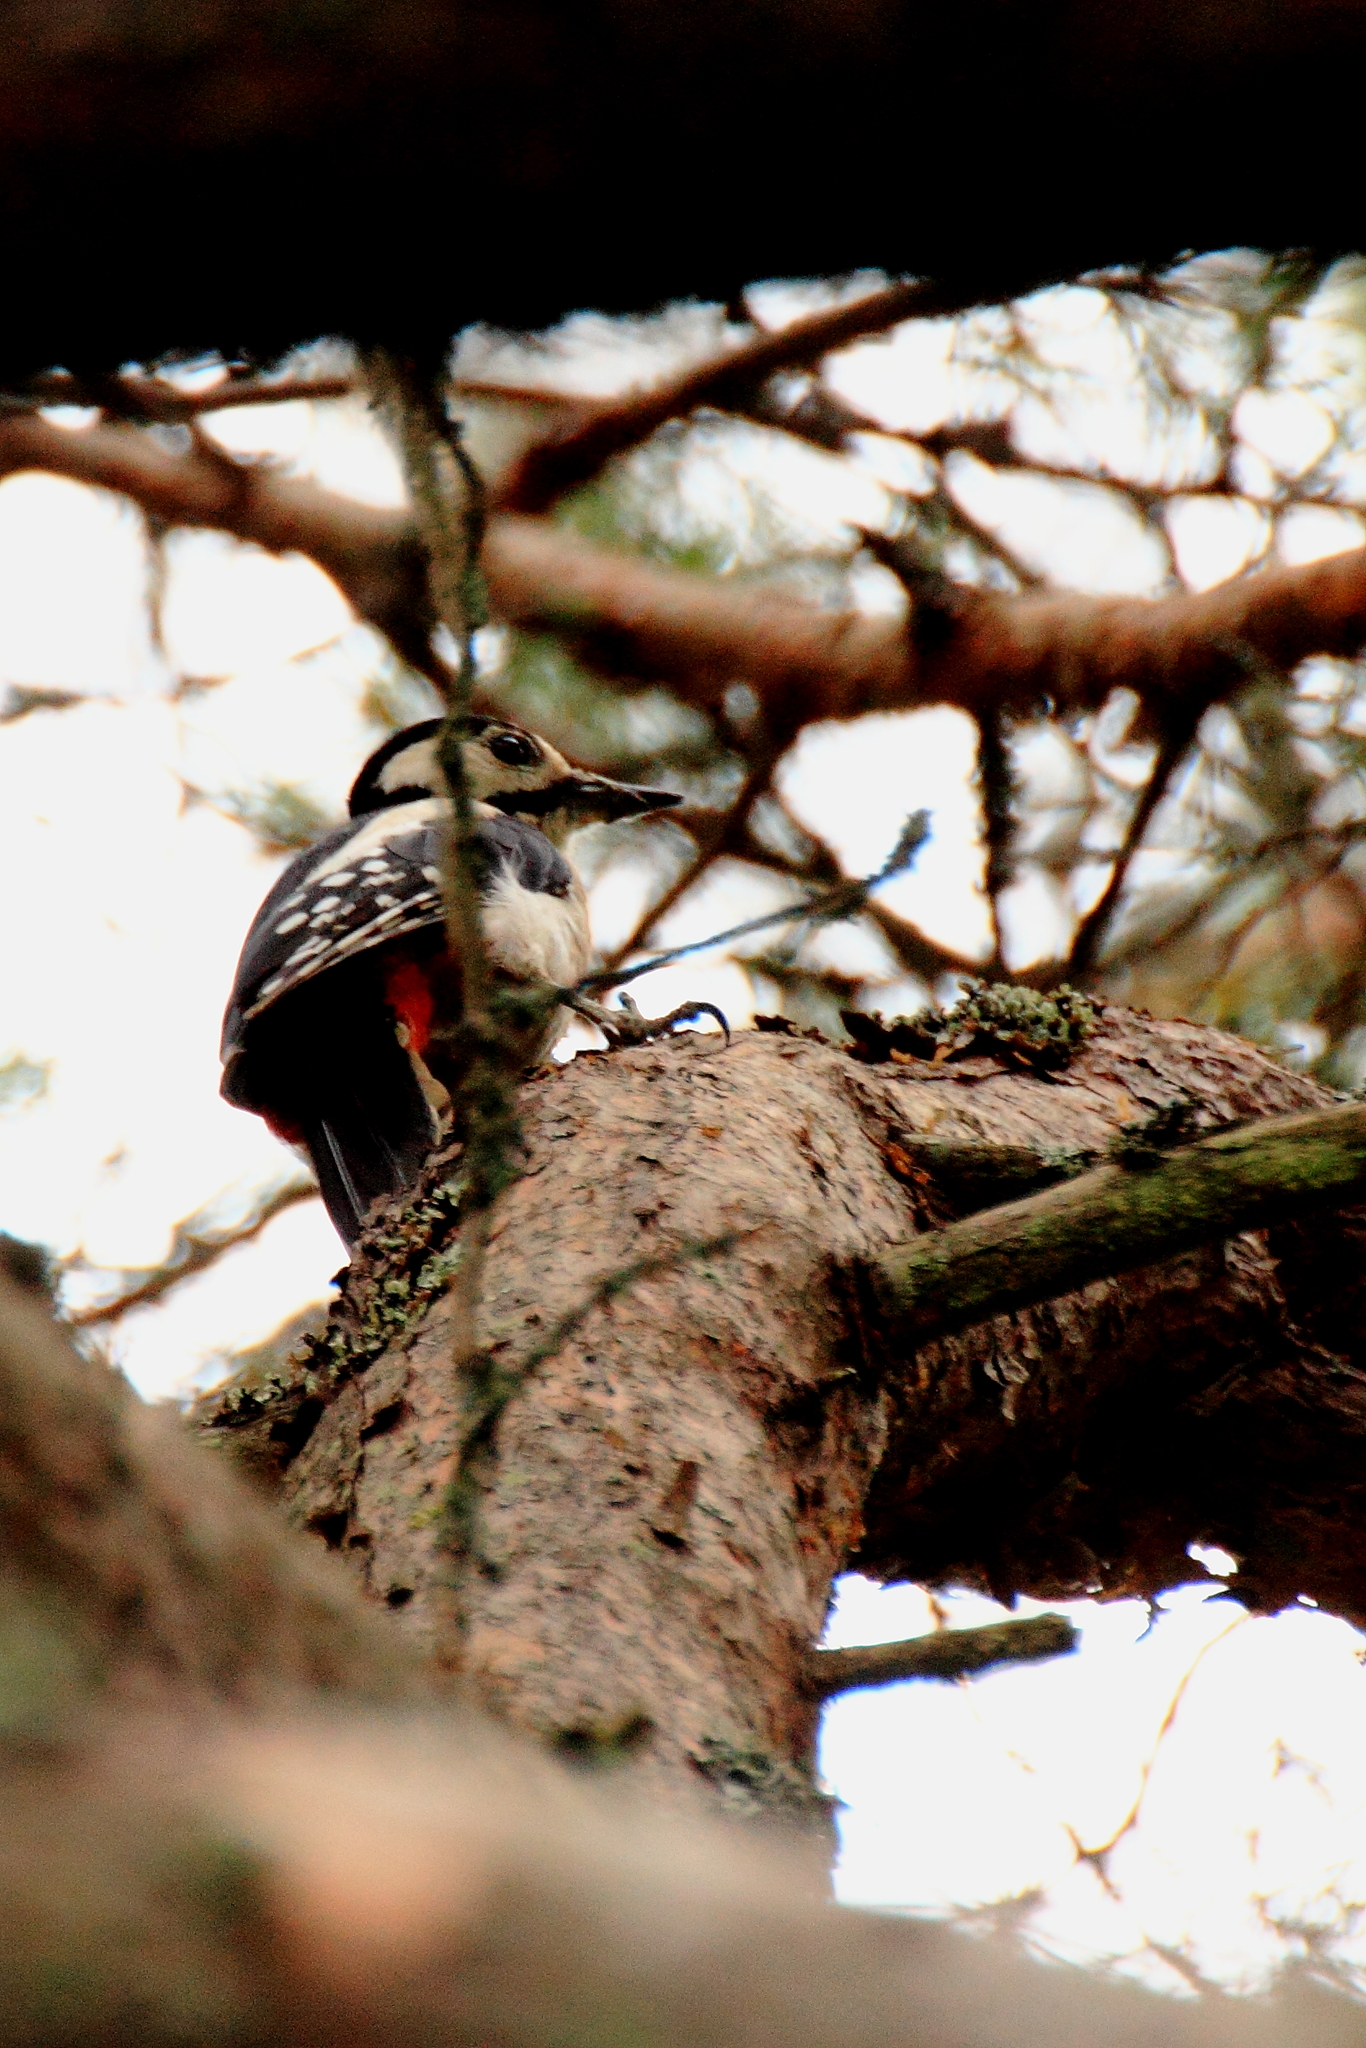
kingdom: Animalia
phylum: Chordata
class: Aves
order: Piciformes
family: Picidae
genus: Dendrocopos
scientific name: Dendrocopos major
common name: Great spotted woodpecker
